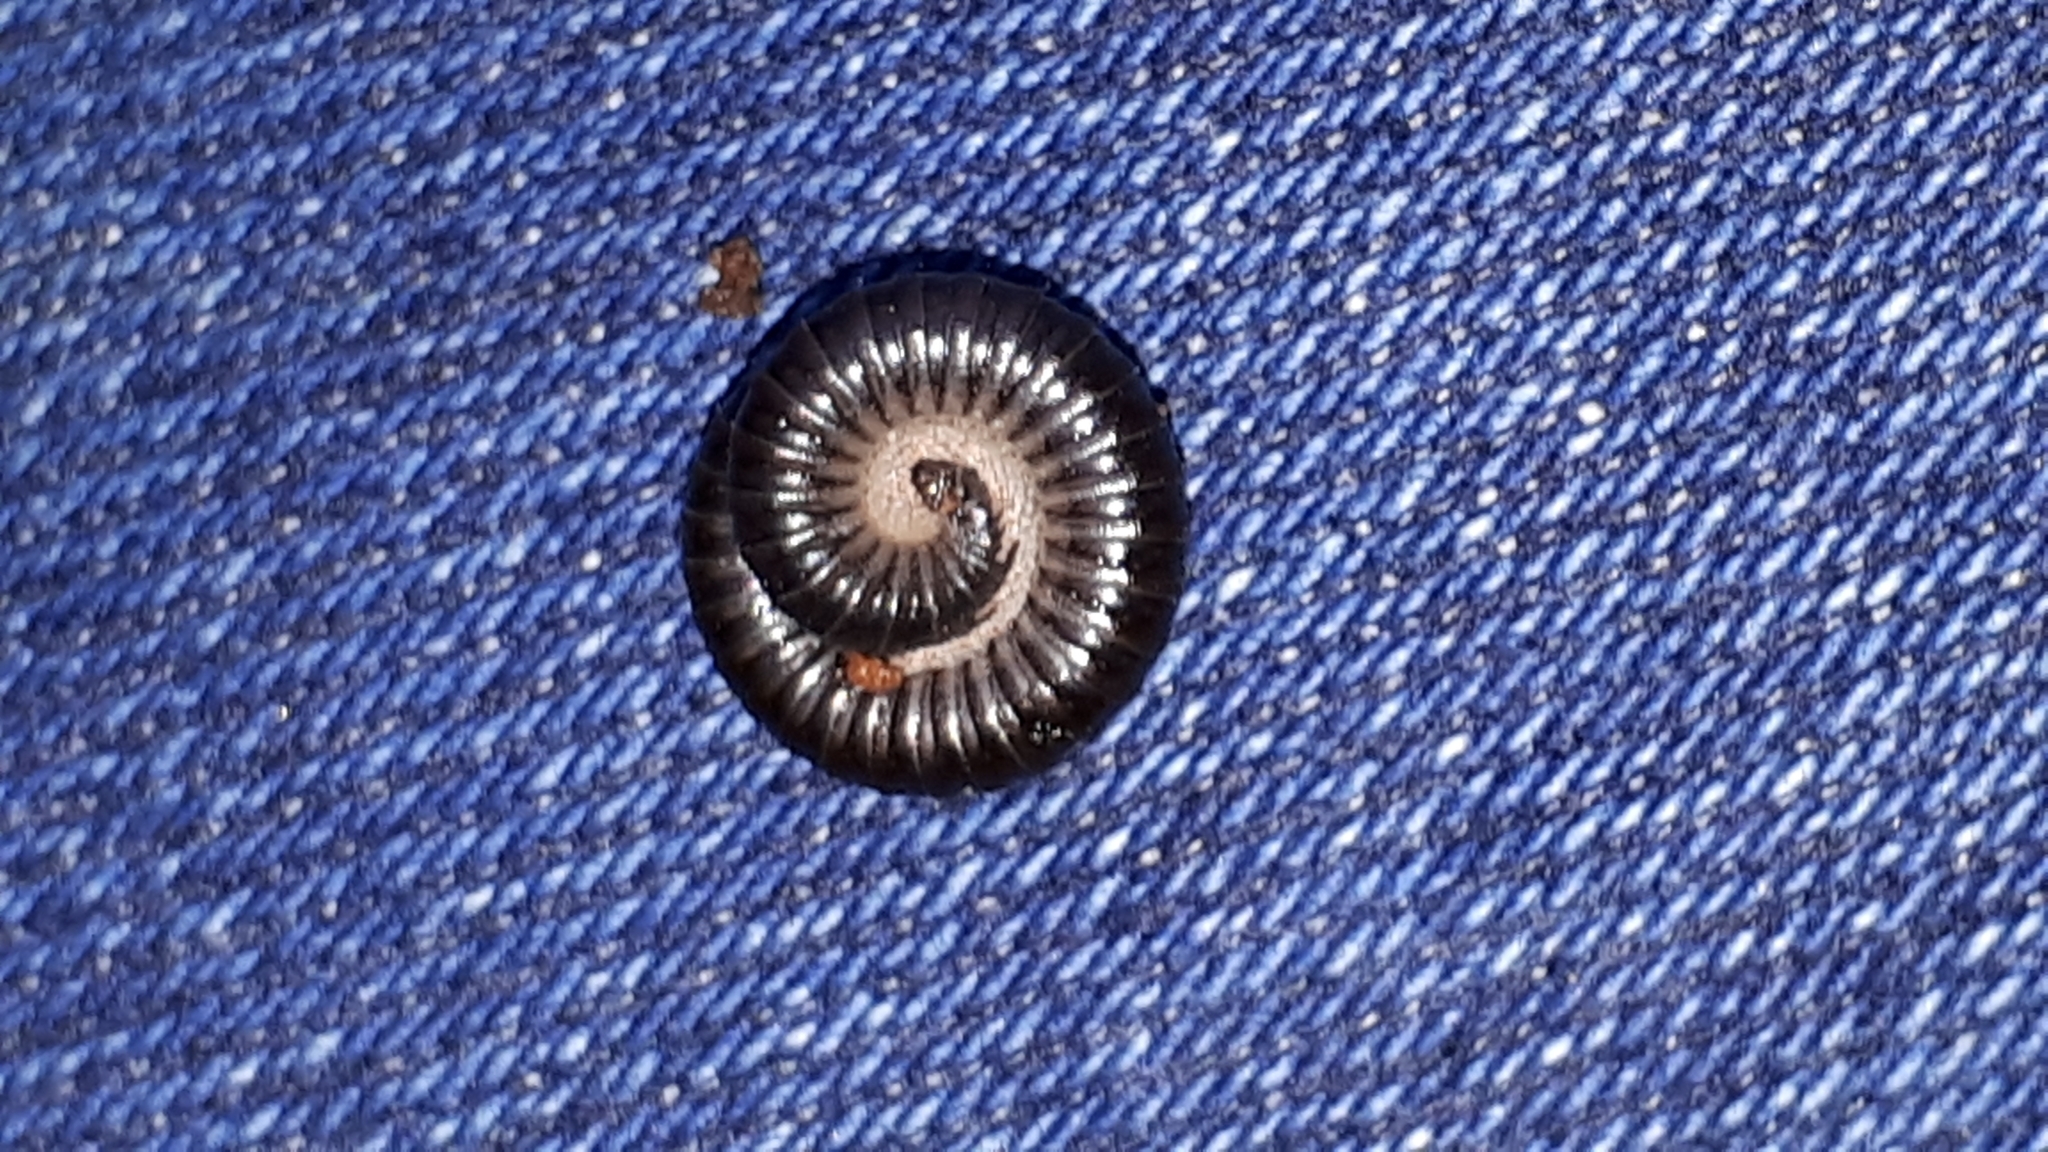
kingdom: Animalia
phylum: Arthropoda
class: Diplopoda
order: Julida
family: Julidae
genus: Tachypodoiulus
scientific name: Tachypodoiulus niger
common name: White-legged snake millipede
